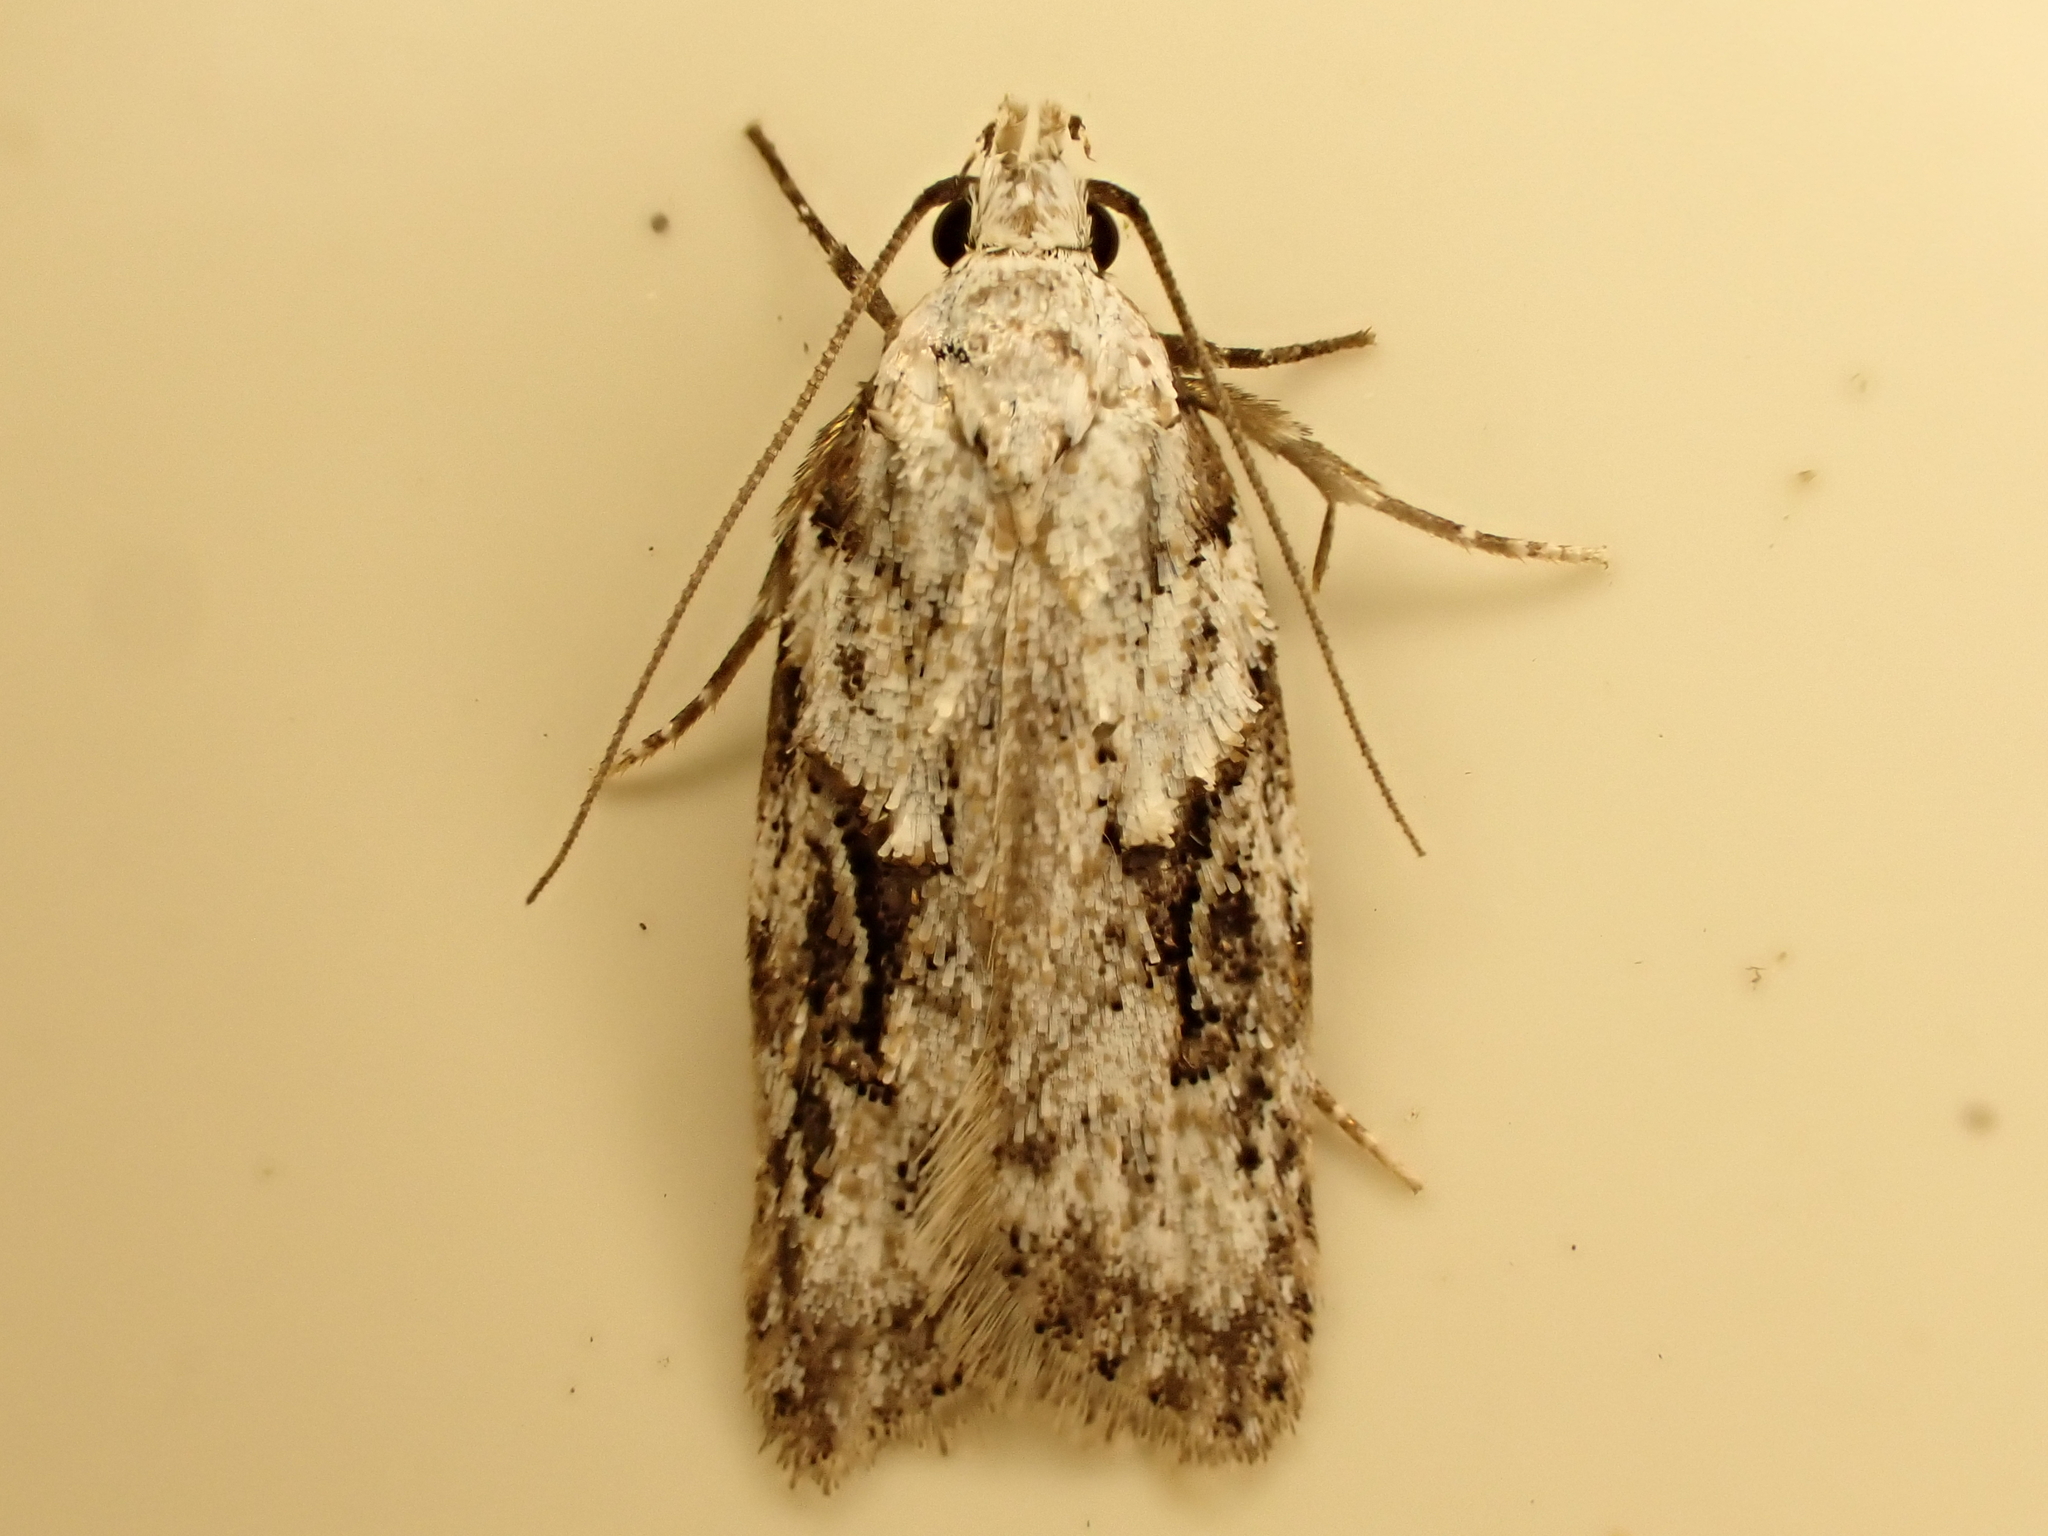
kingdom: Animalia
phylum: Arthropoda
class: Insecta
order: Lepidoptera
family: Oecophoridae
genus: Izatha
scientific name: Izatha mesoschista
